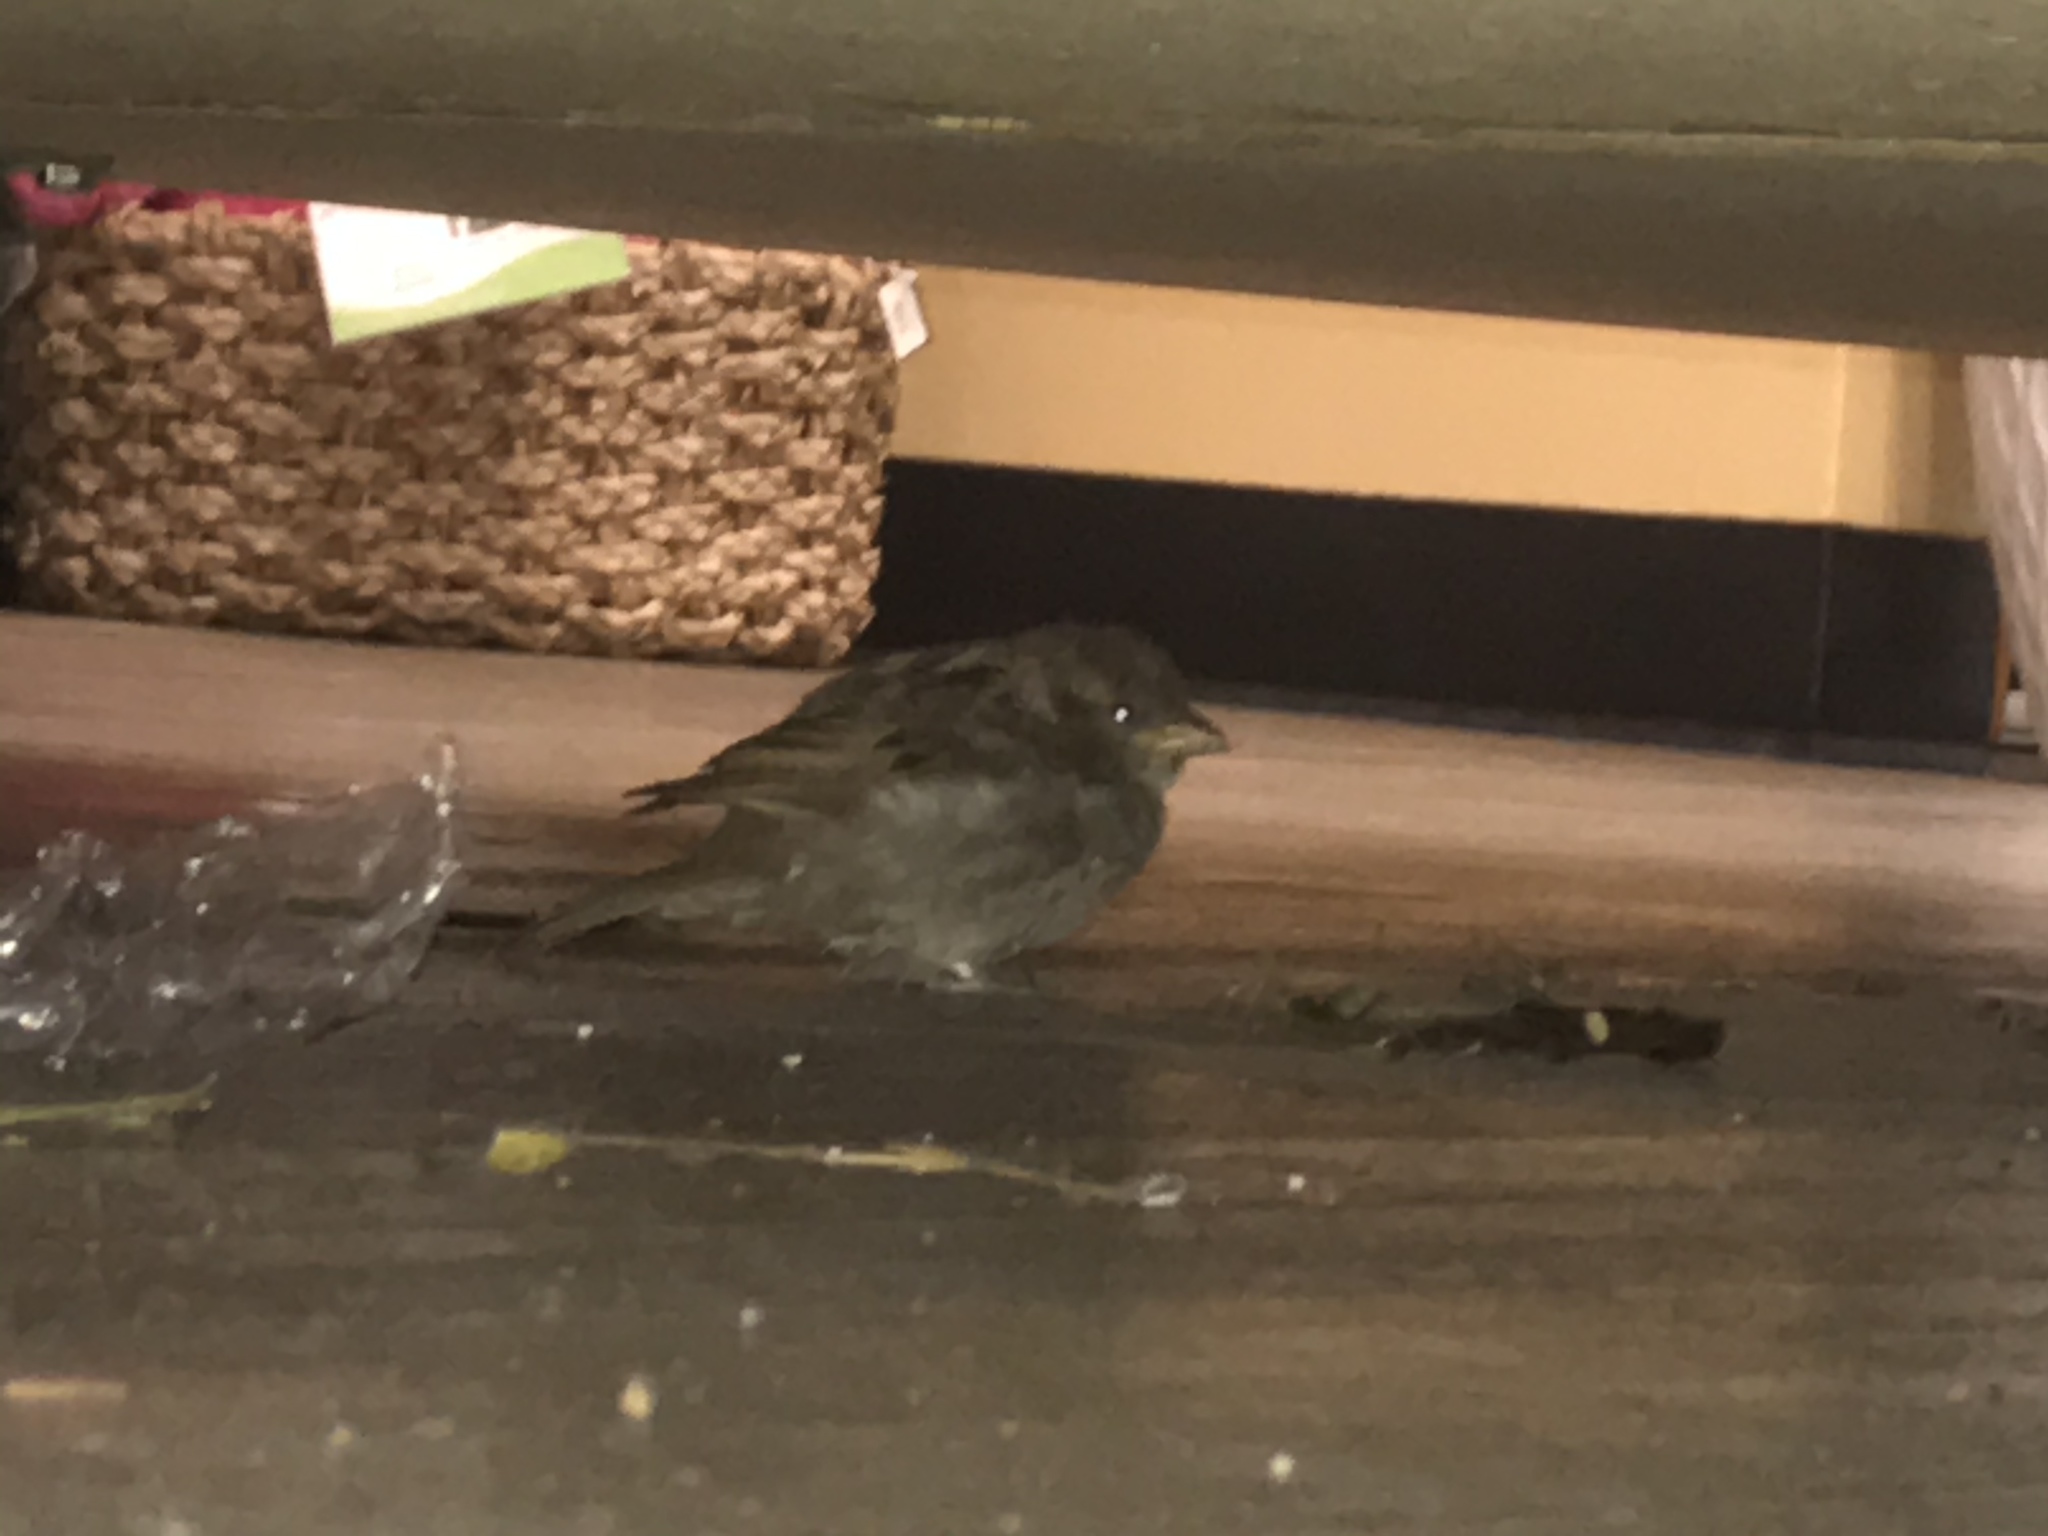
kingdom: Animalia
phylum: Chordata
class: Aves
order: Passeriformes
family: Passeridae
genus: Passer
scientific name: Passer domesticus
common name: House sparrow
